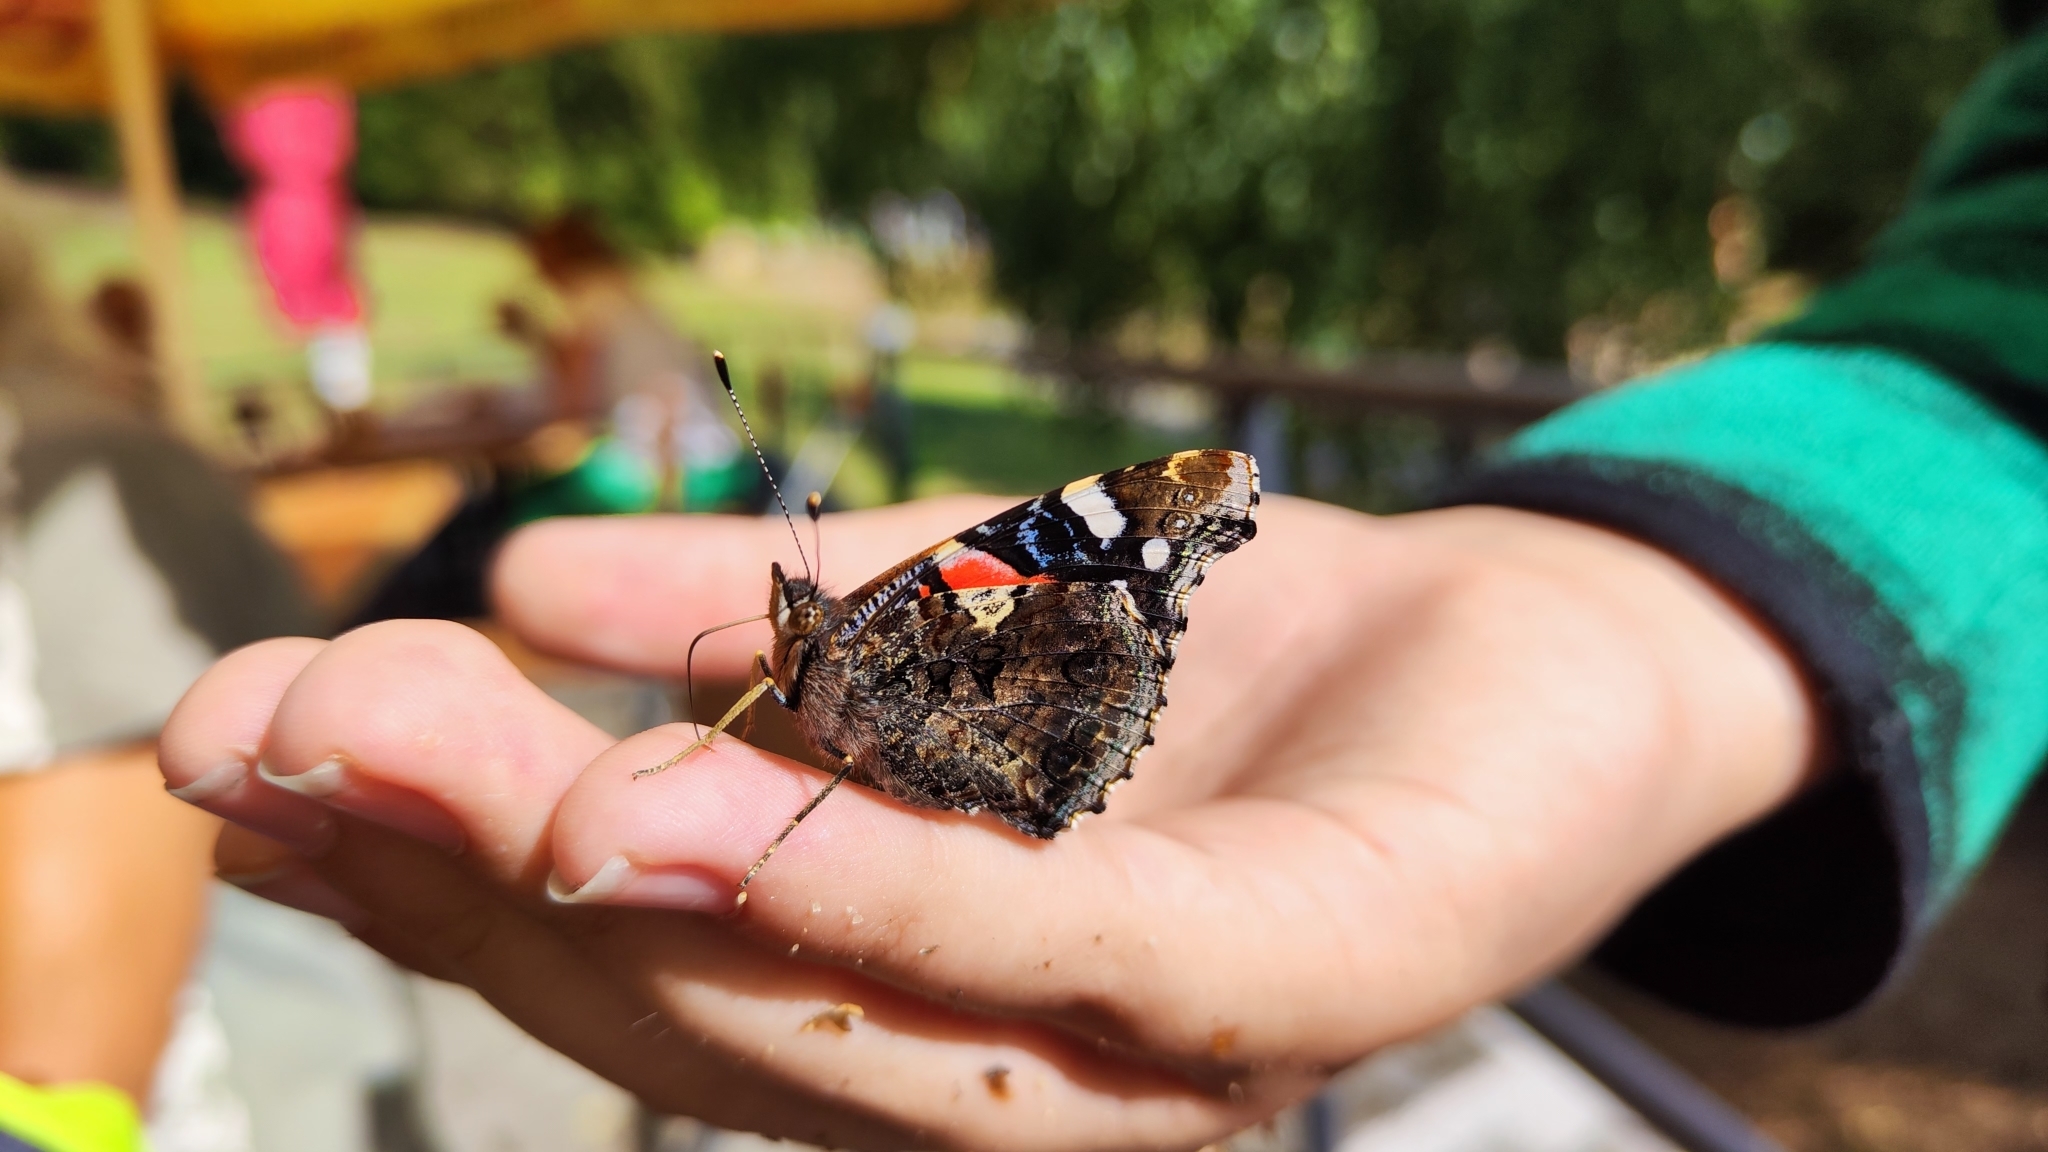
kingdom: Animalia
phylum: Arthropoda
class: Insecta
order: Lepidoptera
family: Nymphalidae
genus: Vanessa
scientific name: Vanessa atalanta
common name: Red admiral
